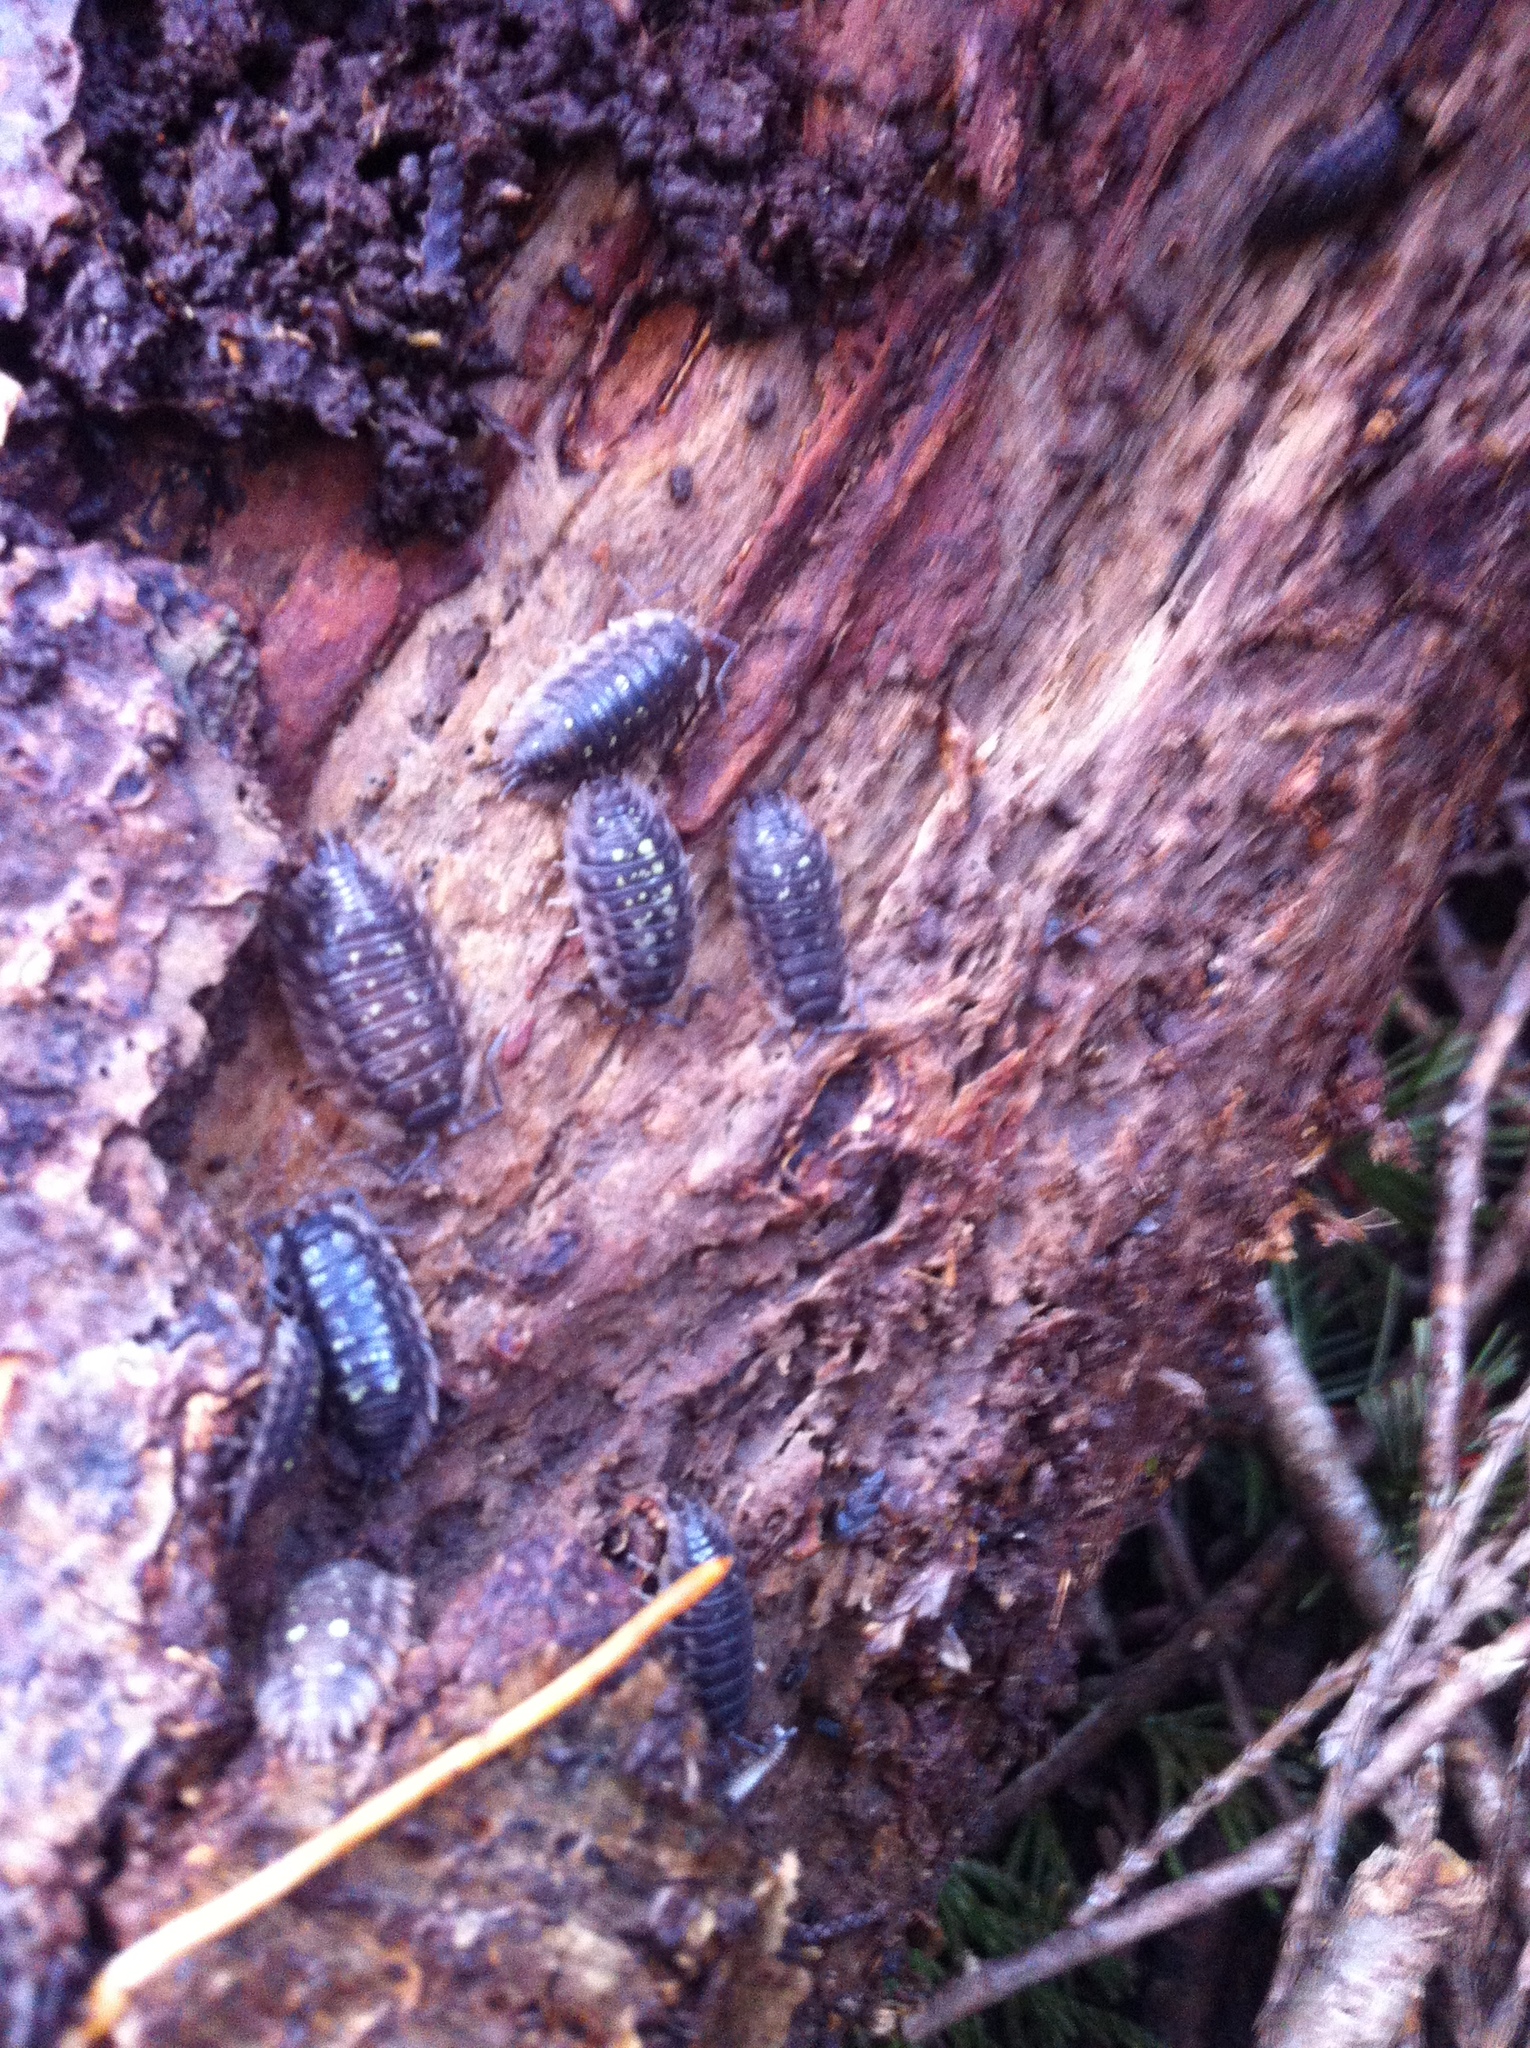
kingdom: Animalia
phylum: Arthropoda
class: Malacostraca
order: Isopoda
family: Oniscidae
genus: Oniscus
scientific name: Oniscus asellus
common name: Common shiny woodlouse
